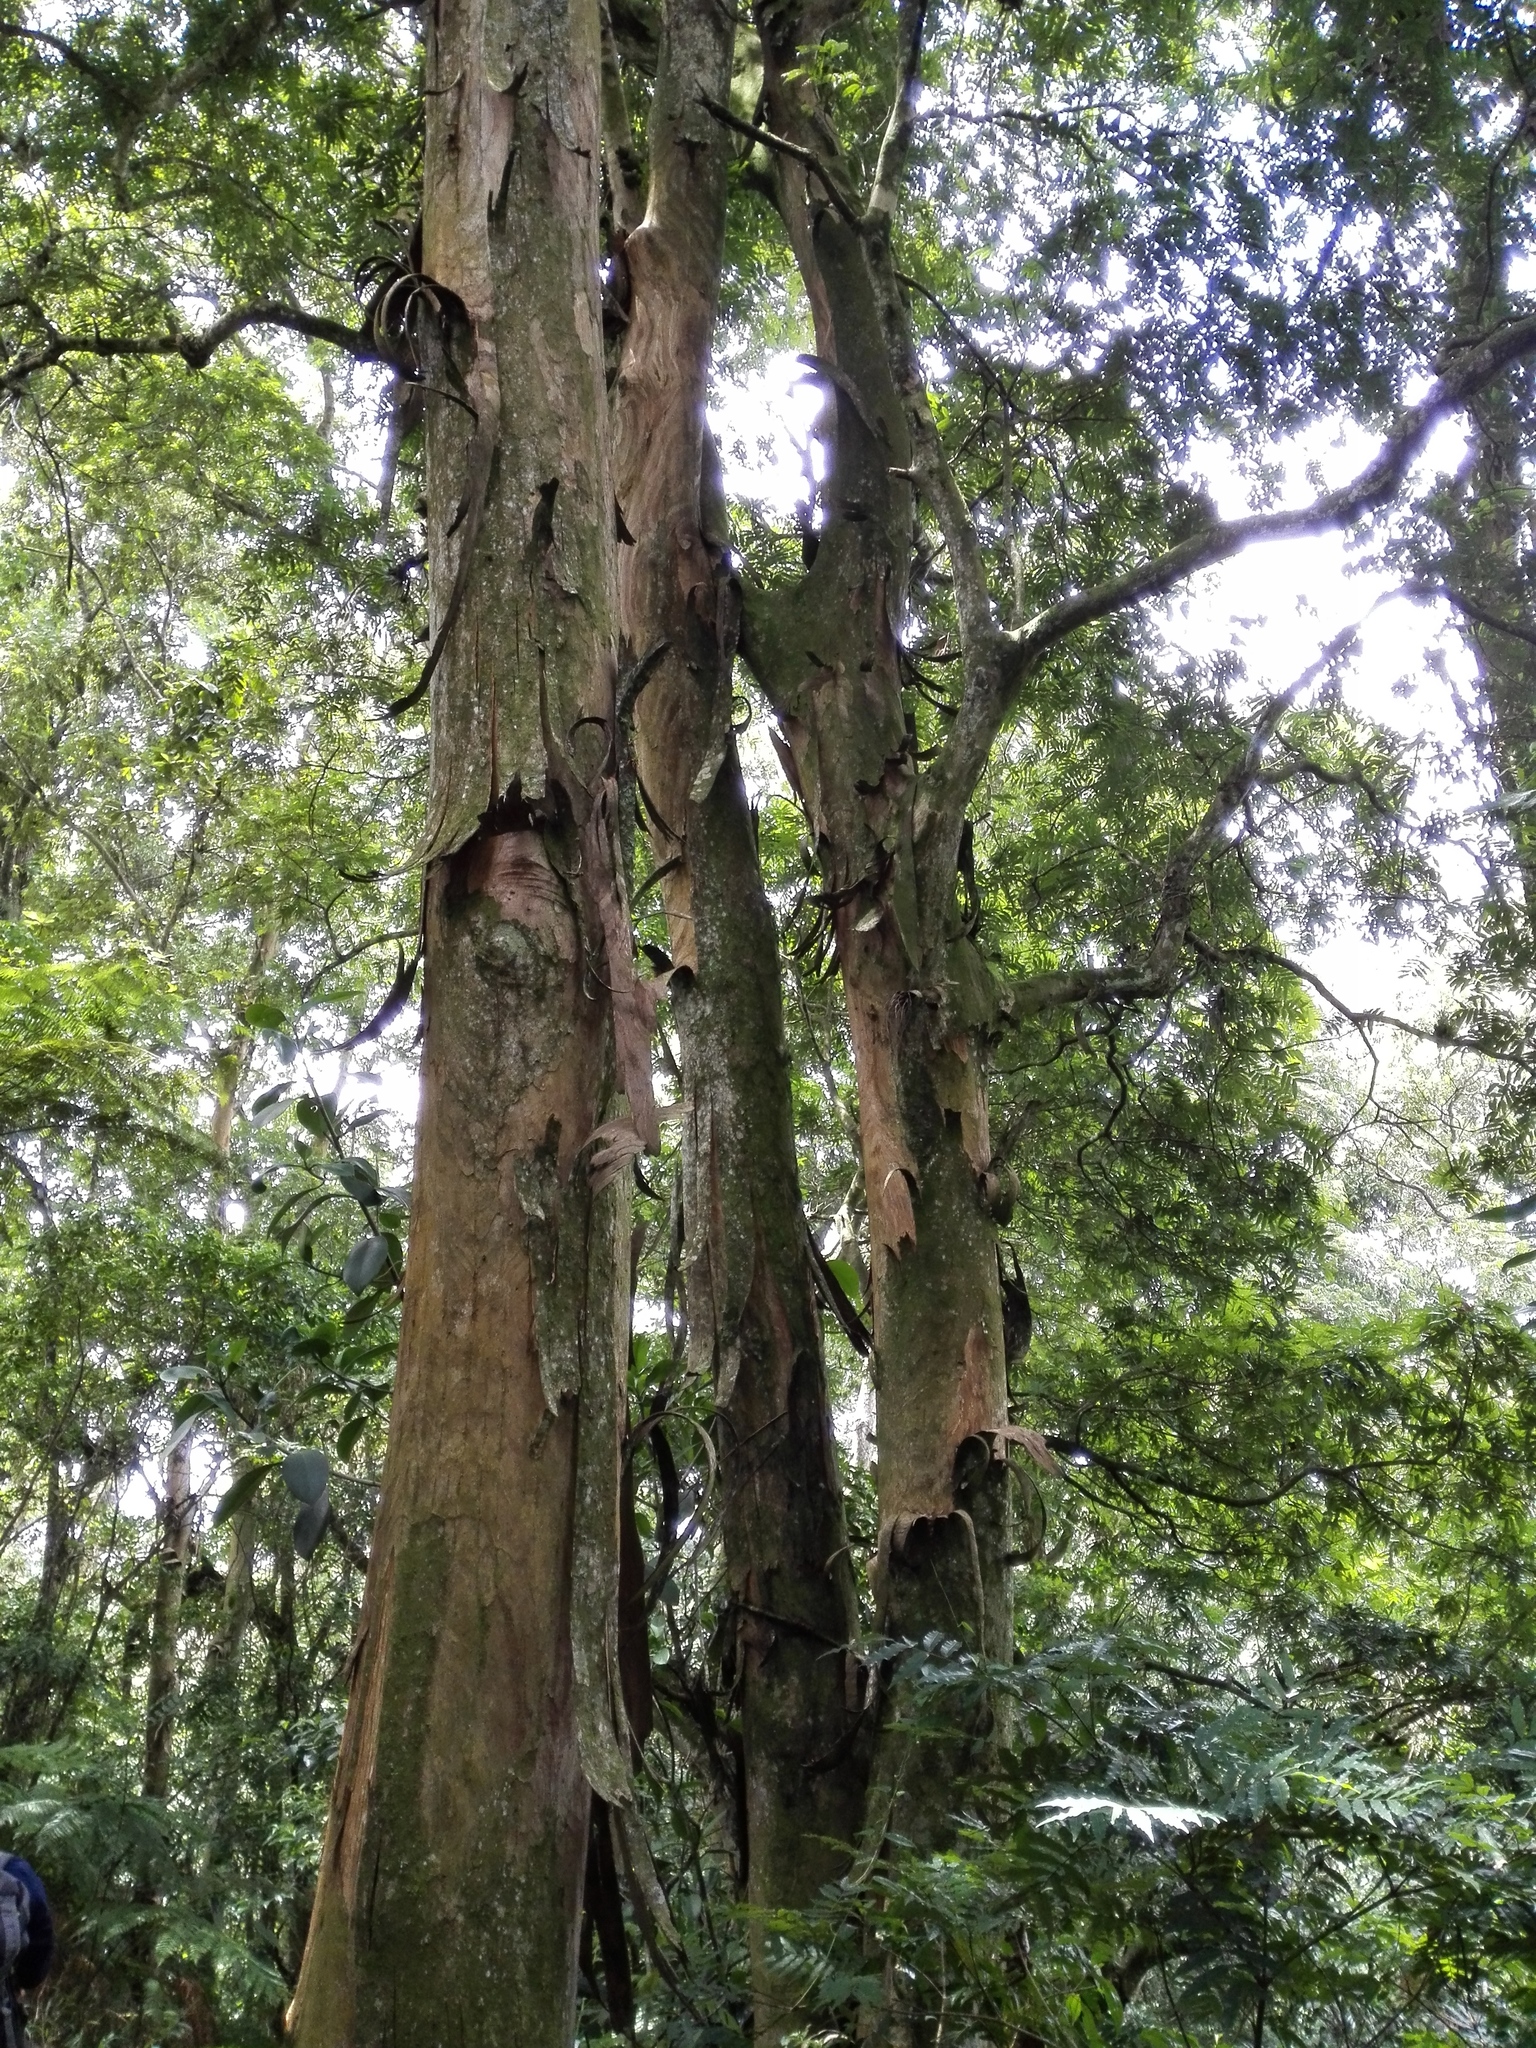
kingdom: Plantae
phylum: Tracheophyta
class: Magnoliopsida
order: Fagales
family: Juglandaceae
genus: Oreomunnea
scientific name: Oreomunnea mexicana
